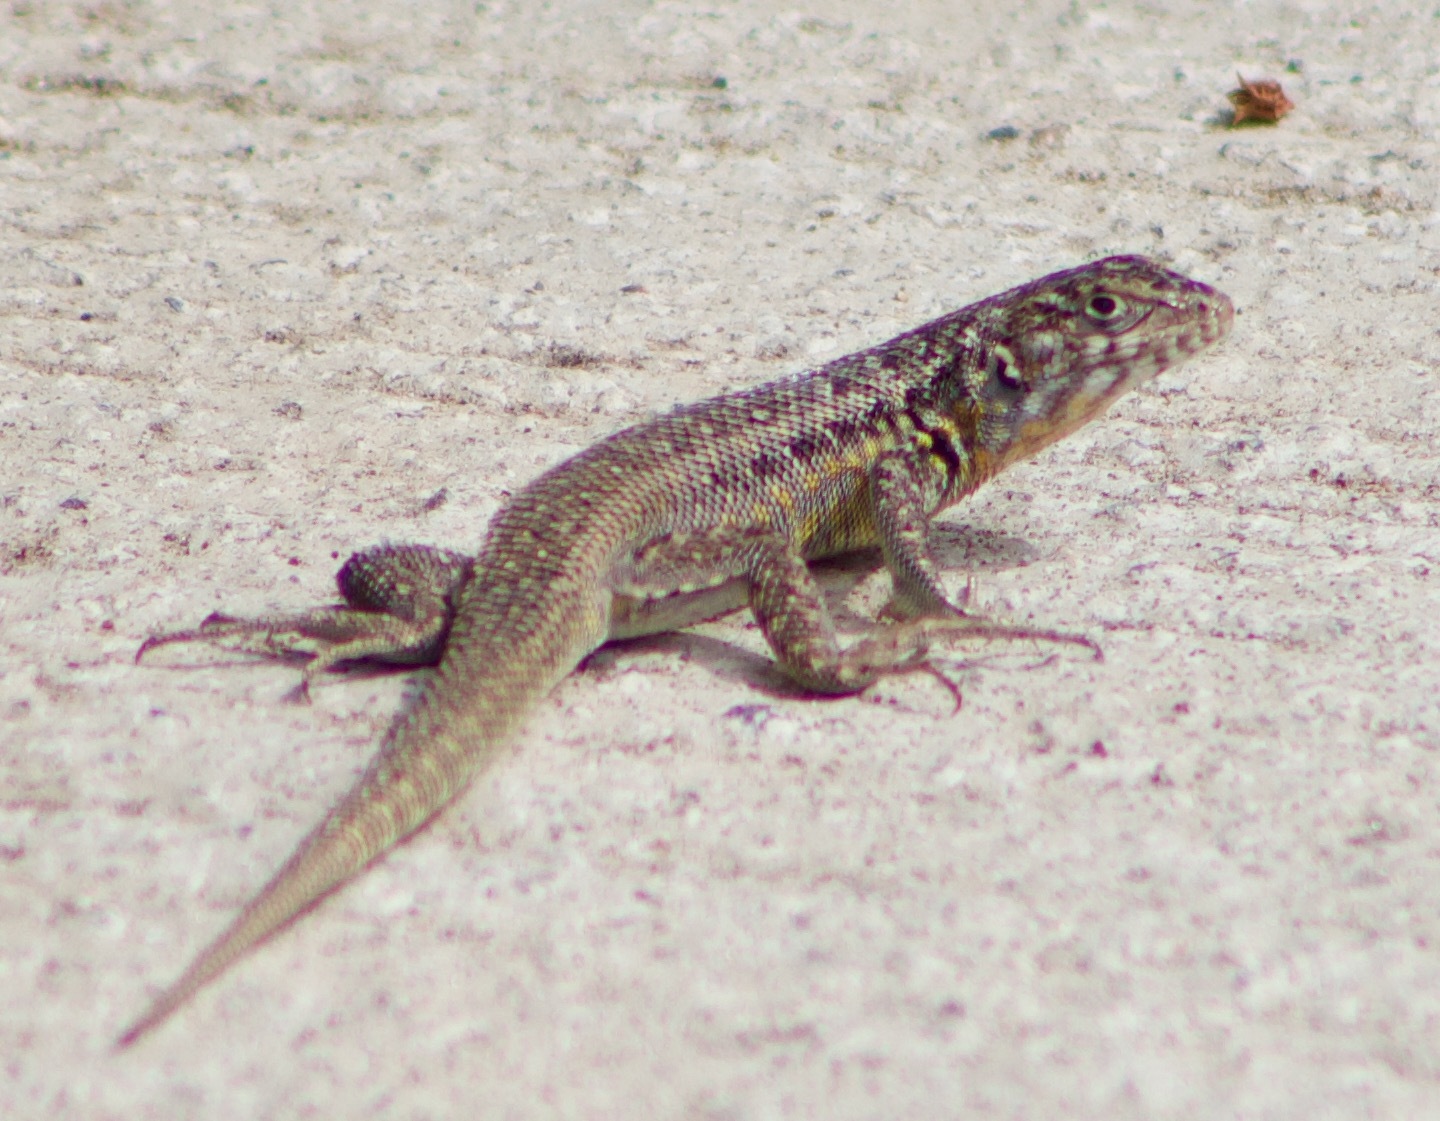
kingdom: Animalia
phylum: Chordata
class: Squamata
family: Liolaemidae
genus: Liolaemus
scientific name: Liolaemus zapallarensis
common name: Zapallaren tree iguana
